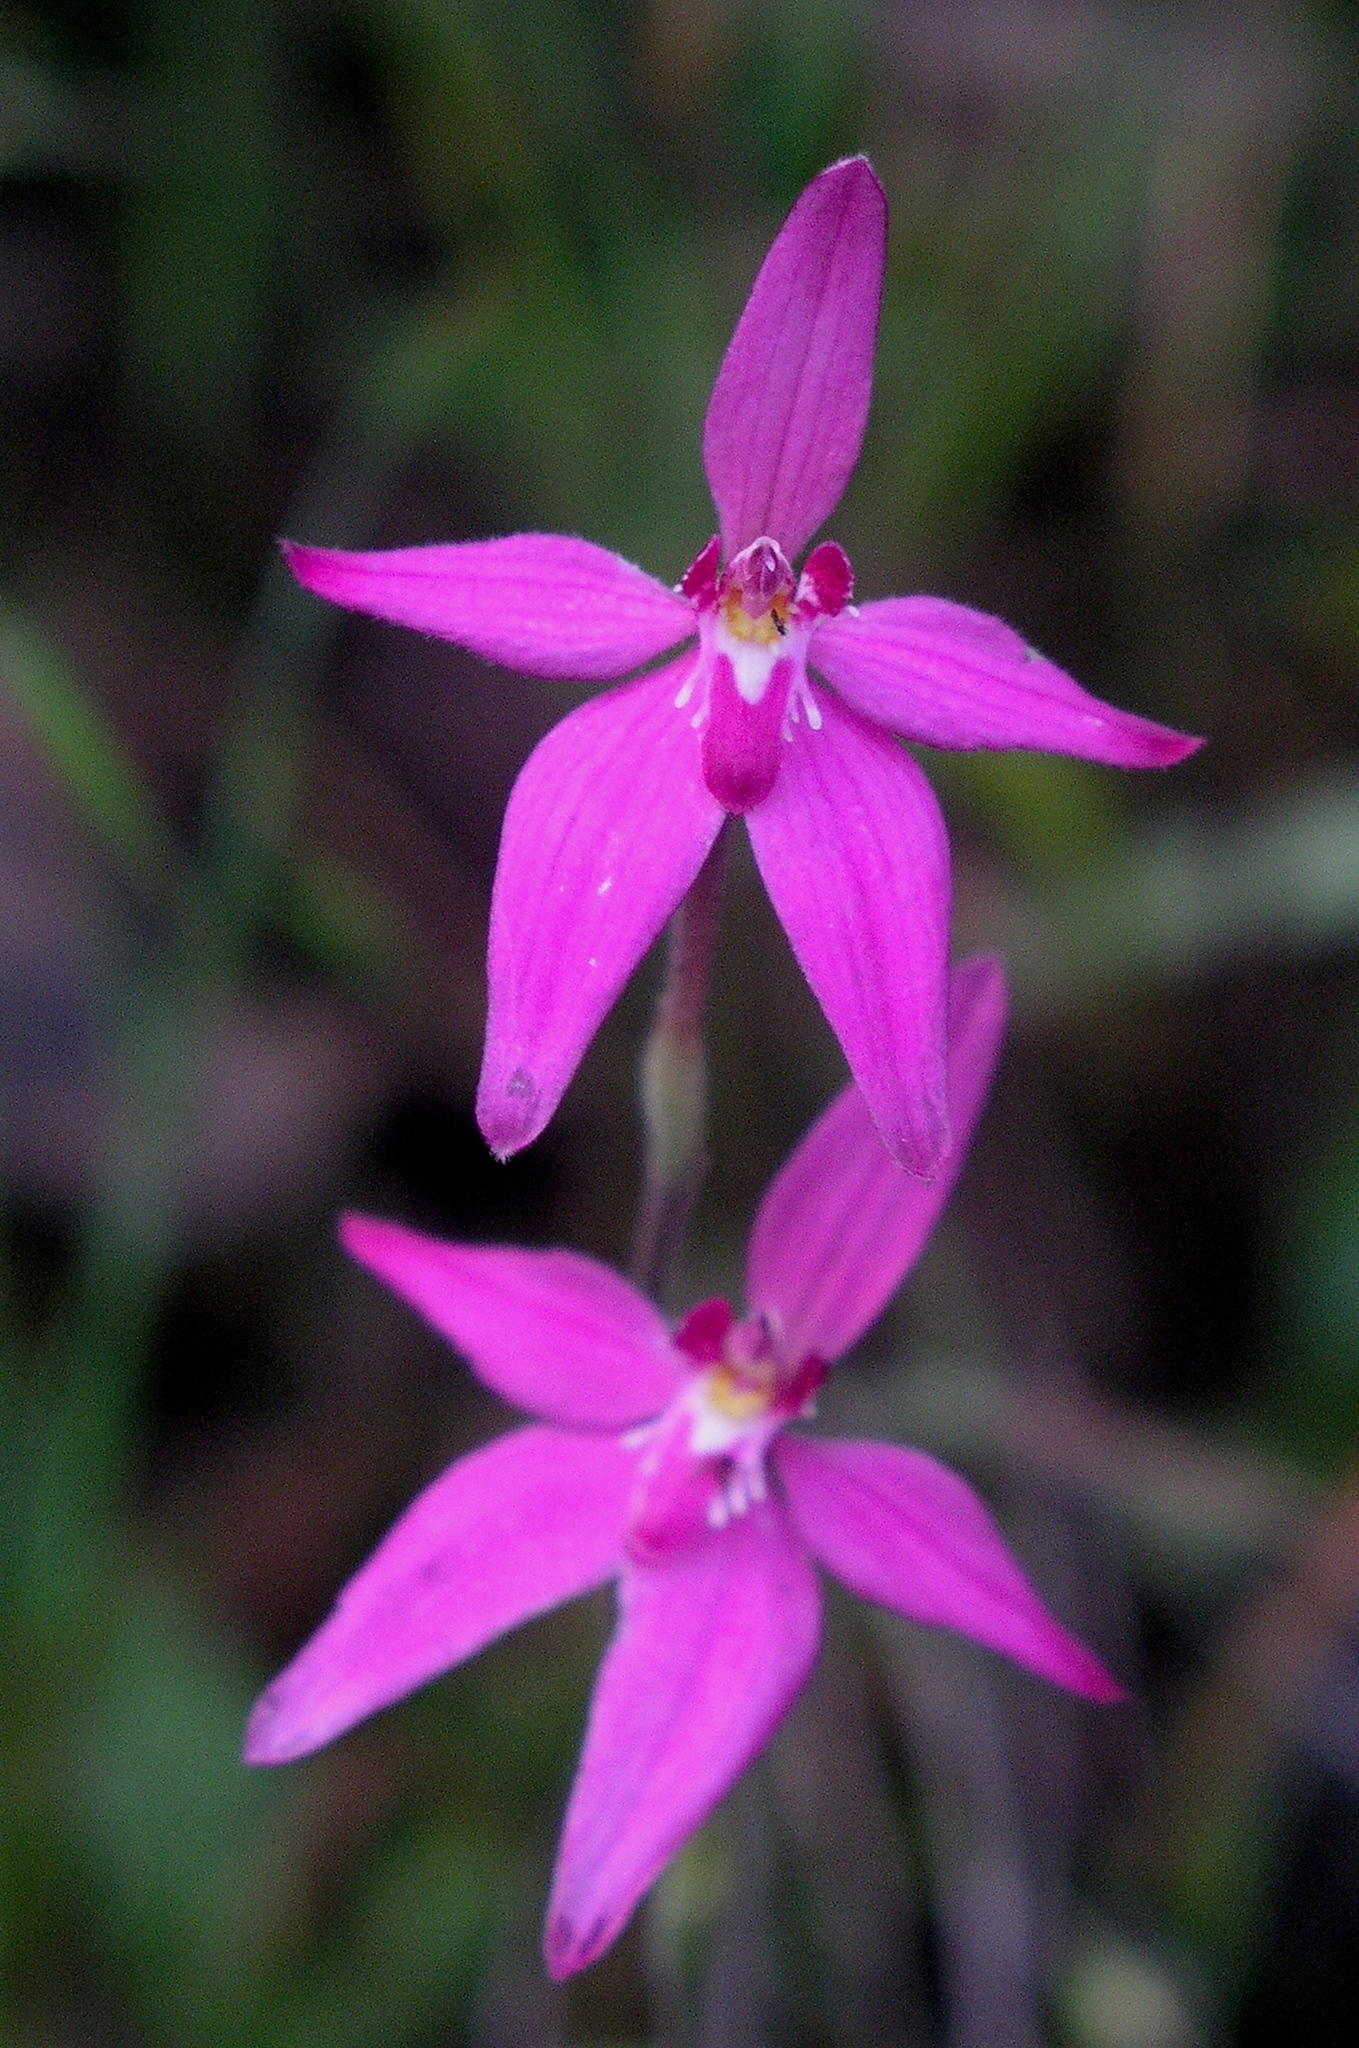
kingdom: Plantae
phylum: Tracheophyta
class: Liliopsida
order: Asparagales
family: Orchidaceae
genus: Caladenia
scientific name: Caladenia latifolia
